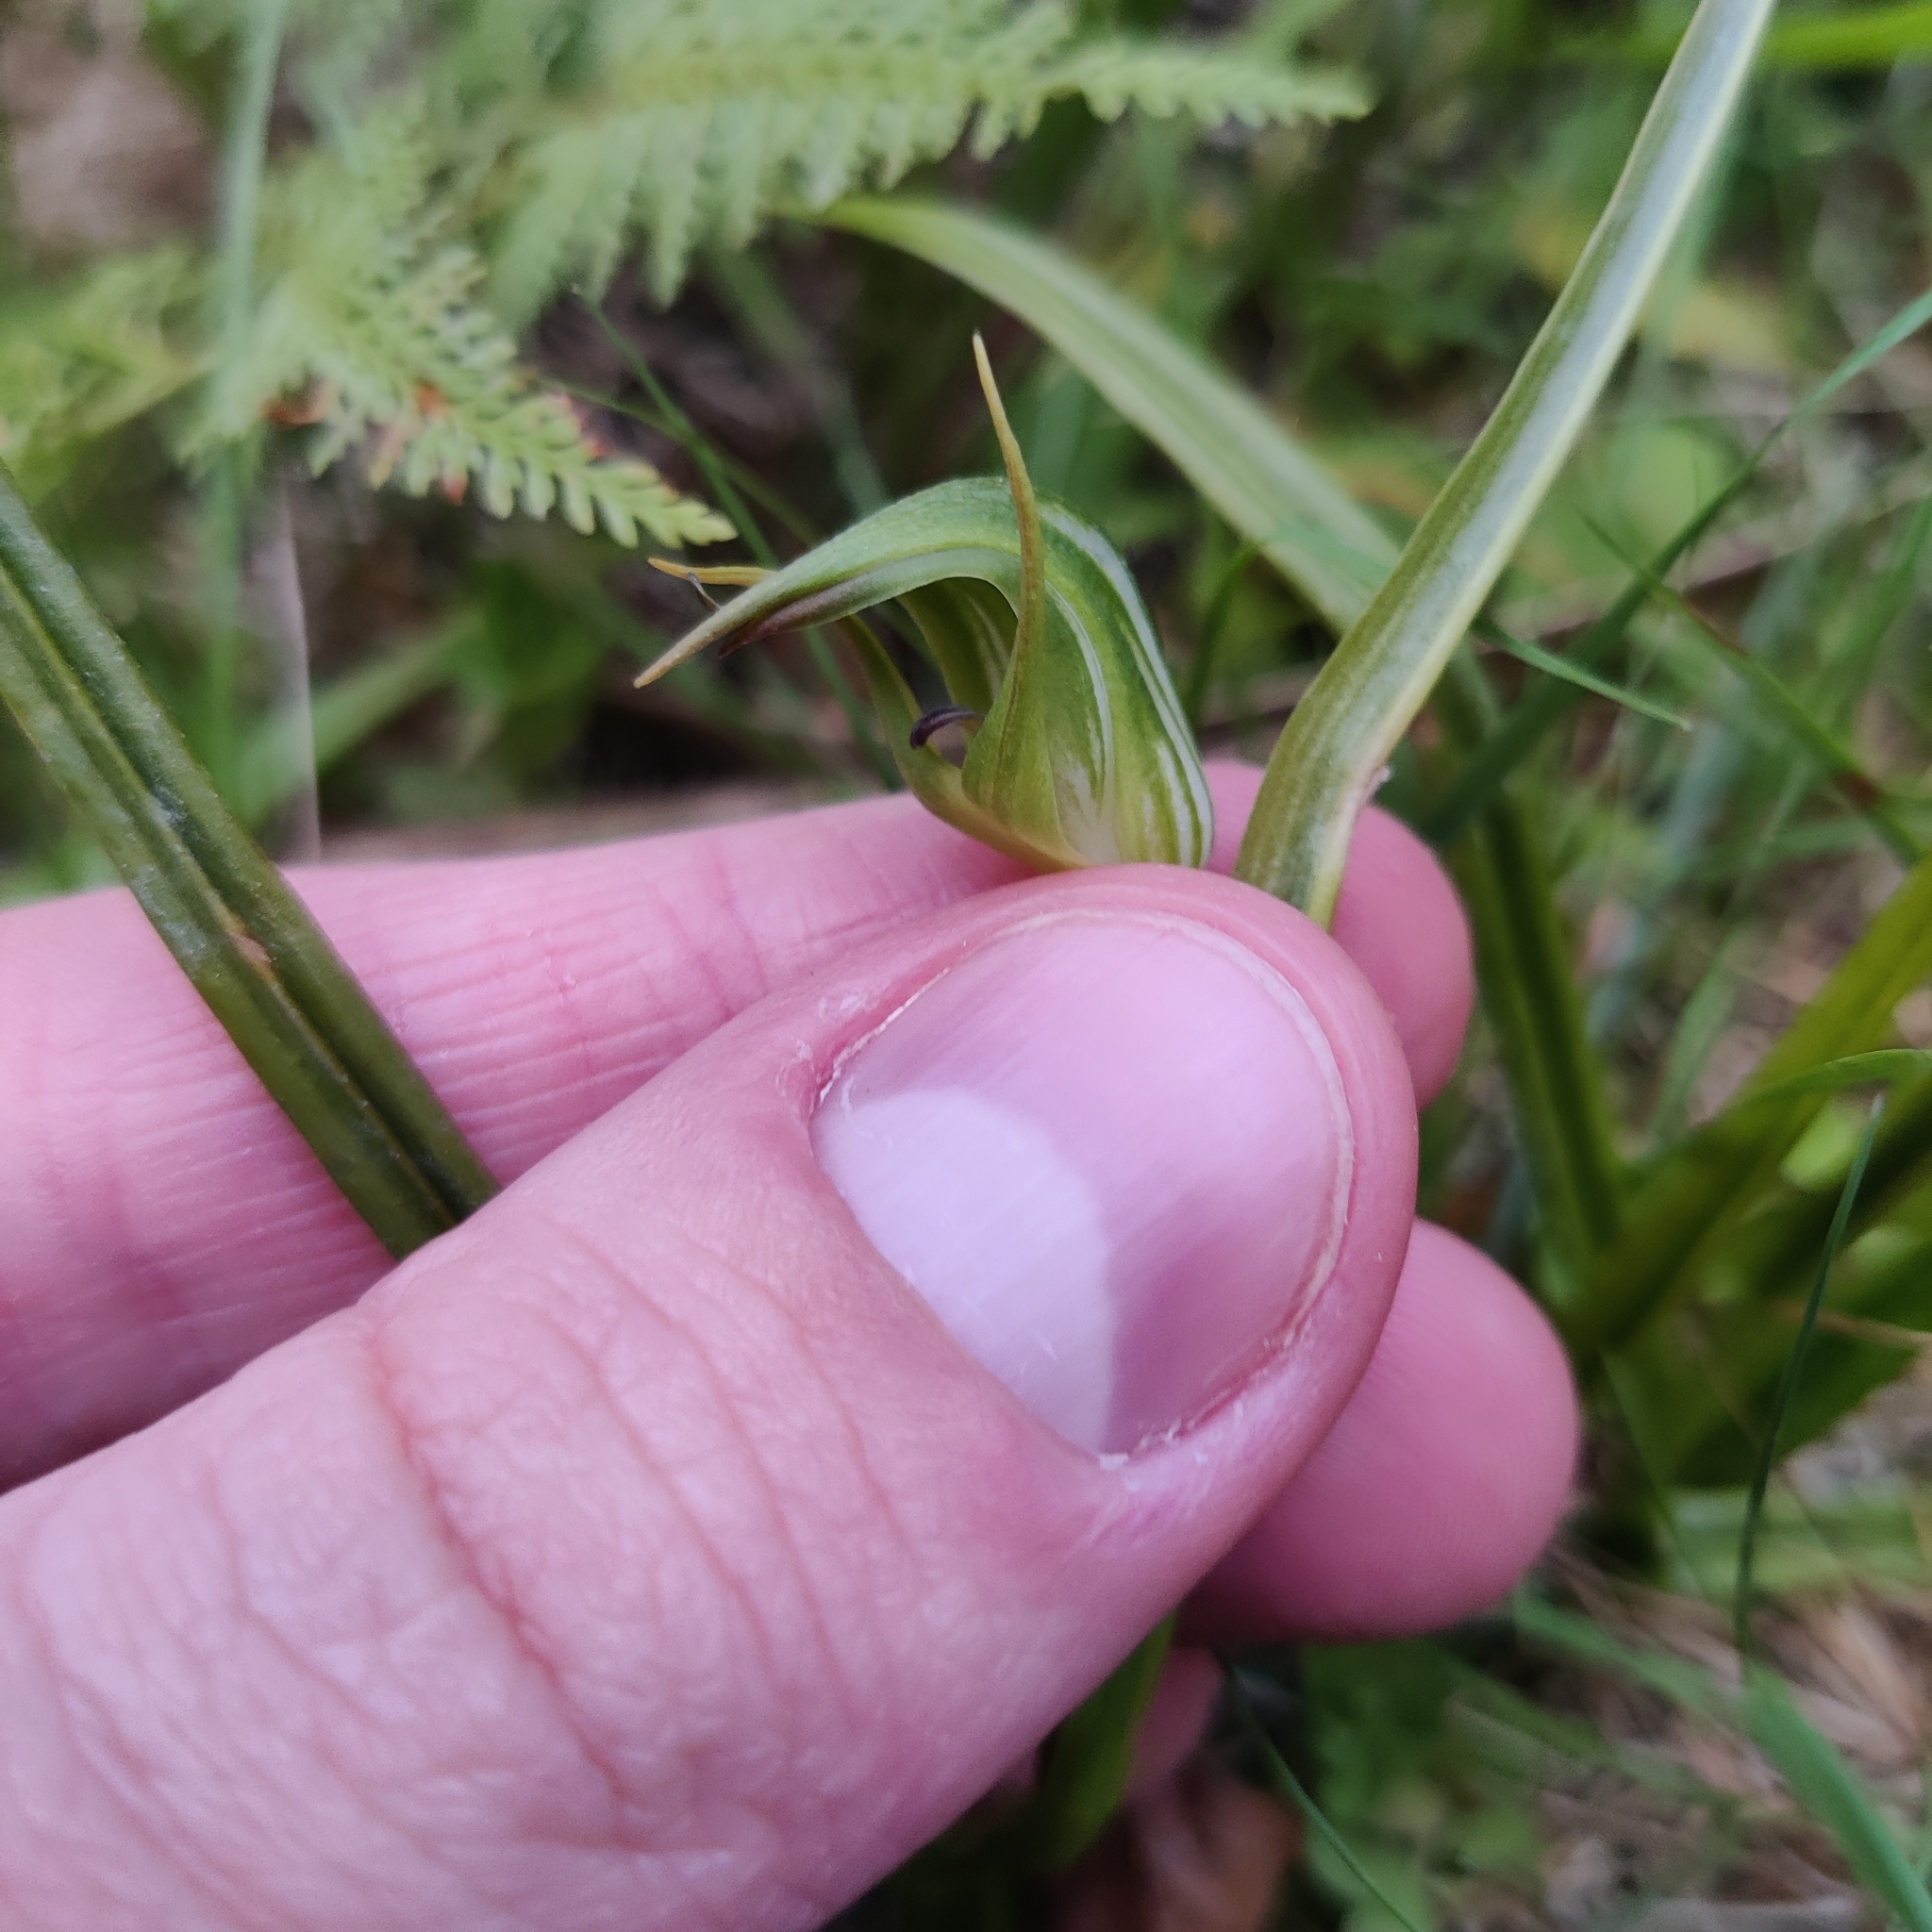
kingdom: Plantae
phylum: Tracheophyta
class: Liliopsida
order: Asparagales
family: Orchidaceae
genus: Pterostylis
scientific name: Pterostylis graminea
